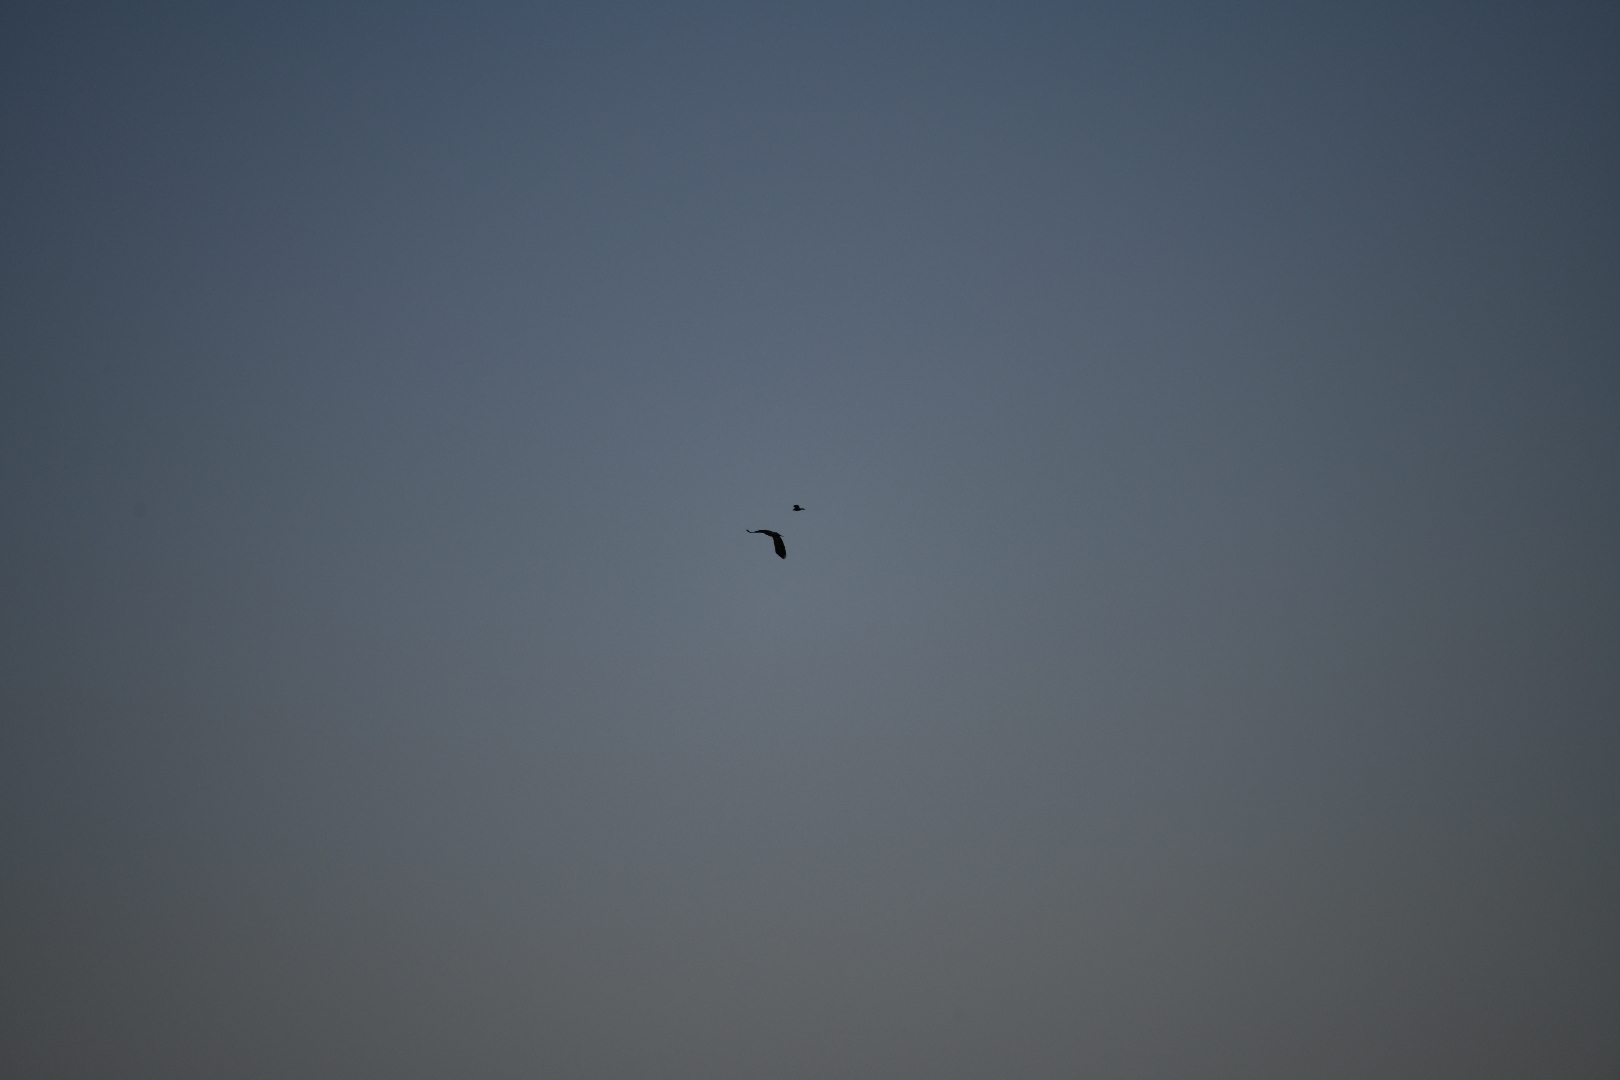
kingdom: Animalia
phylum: Chordata
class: Aves
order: Accipitriformes
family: Accipitridae
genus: Haliaeetus
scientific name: Haliaeetus albicilla
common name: White-tailed eagle
